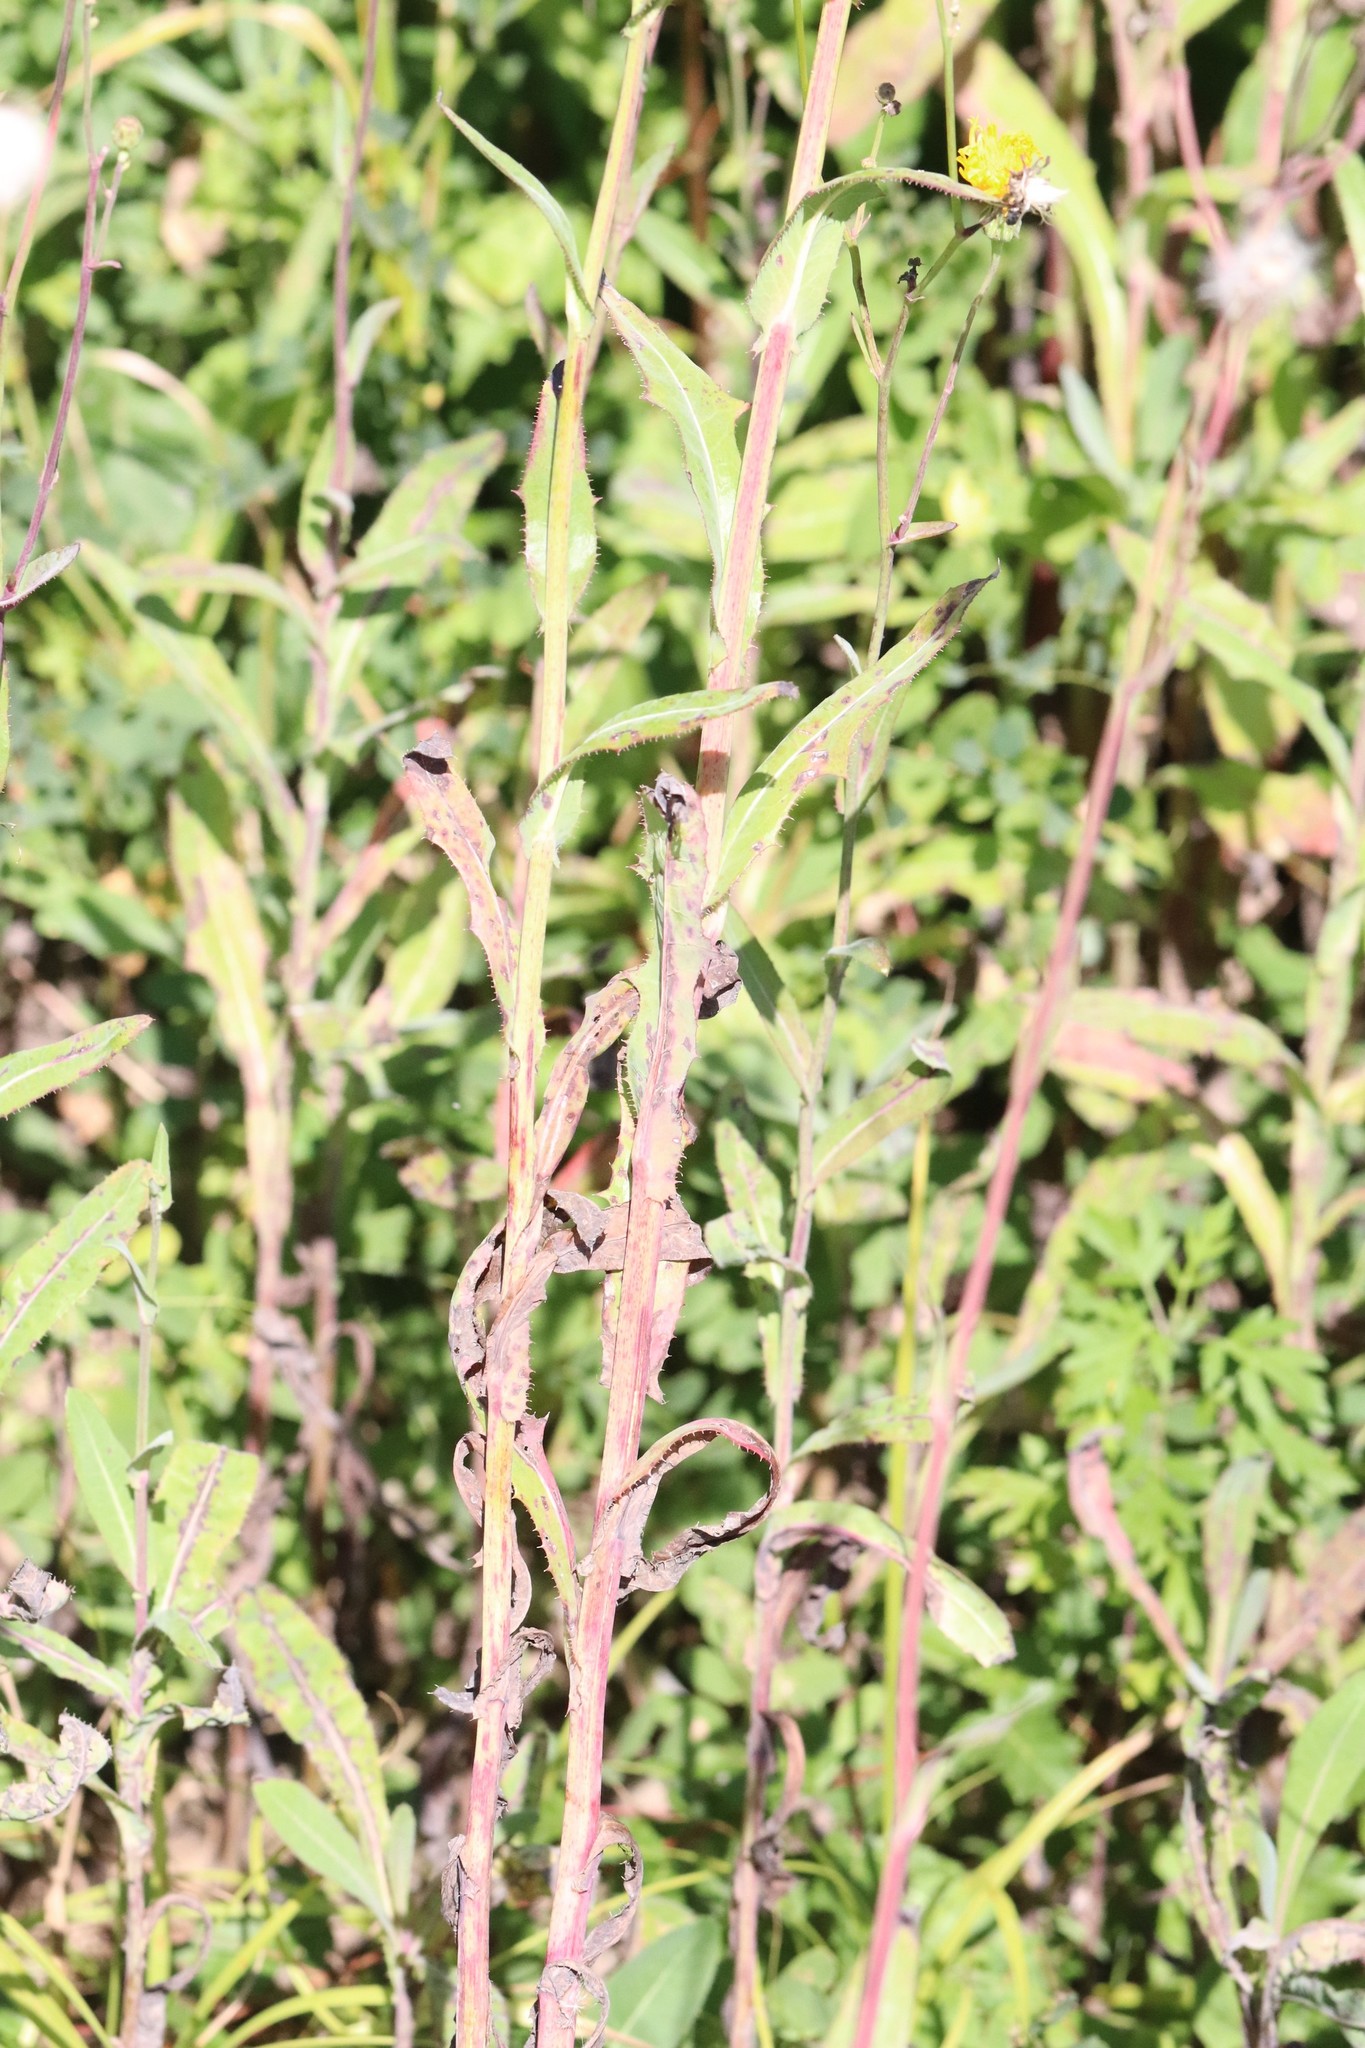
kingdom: Plantae
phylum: Tracheophyta
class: Magnoliopsida
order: Asterales
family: Asteraceae
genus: Sonchus
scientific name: Sonchus arvensis
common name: Perennial sow-thistle
